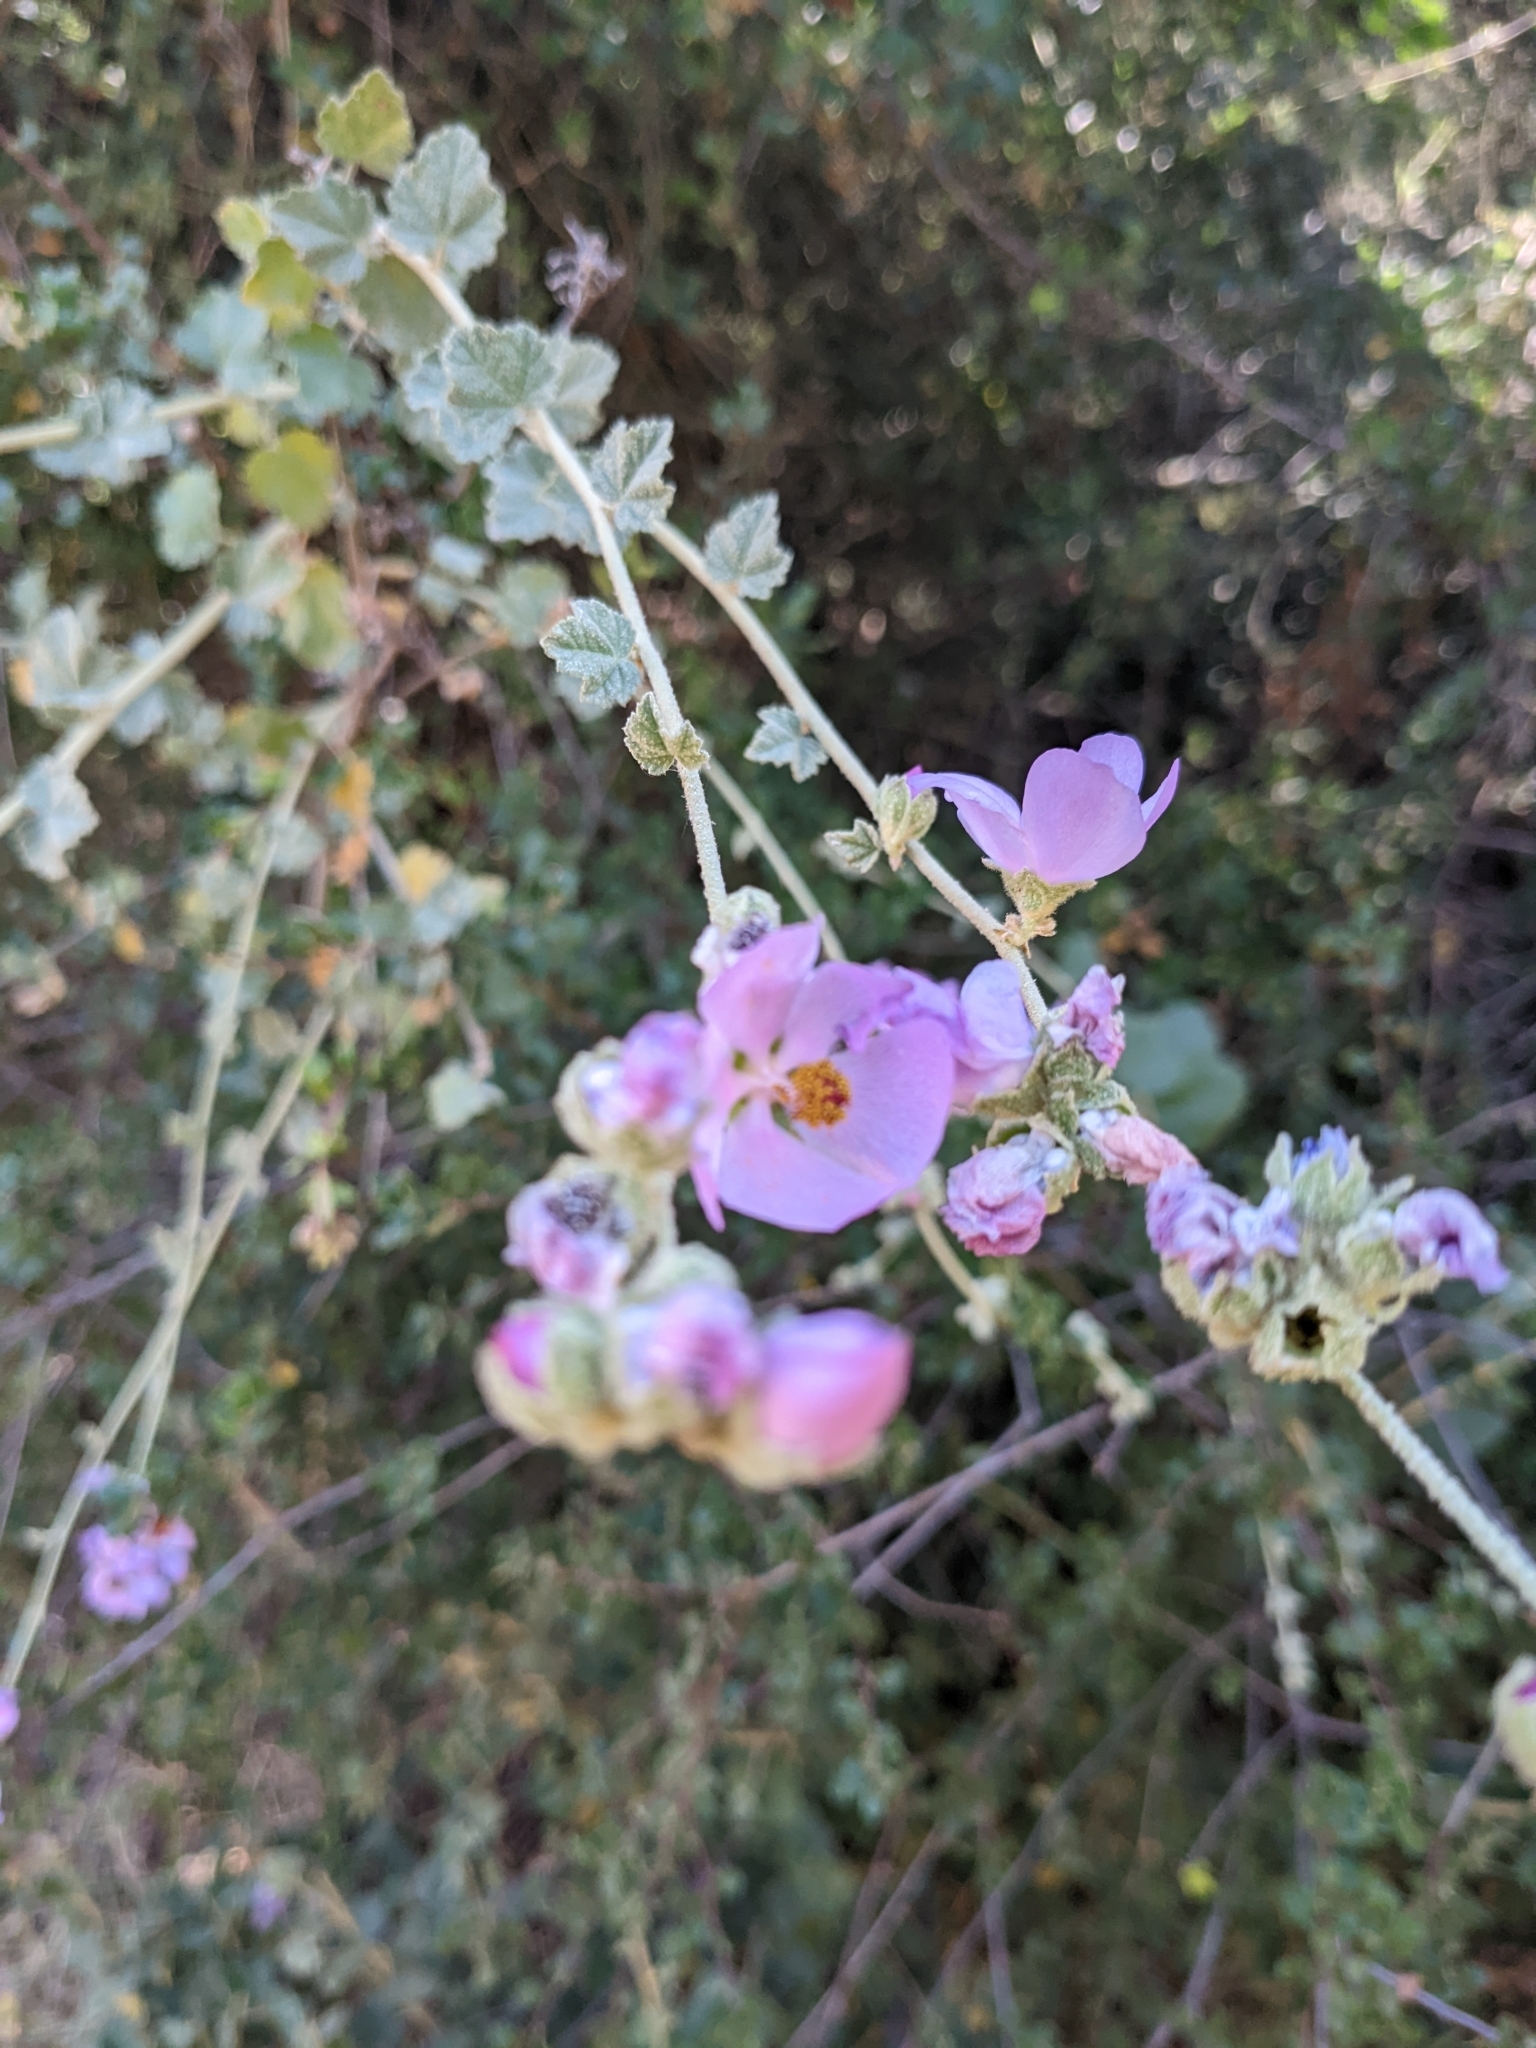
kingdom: Plantae
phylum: Tracheophyta
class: Magnoliopsida
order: Malvales
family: Malvaceae
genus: Malacothamnus
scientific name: Malacothamnus fasciculatus
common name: Sant cruz island bush-mallow
